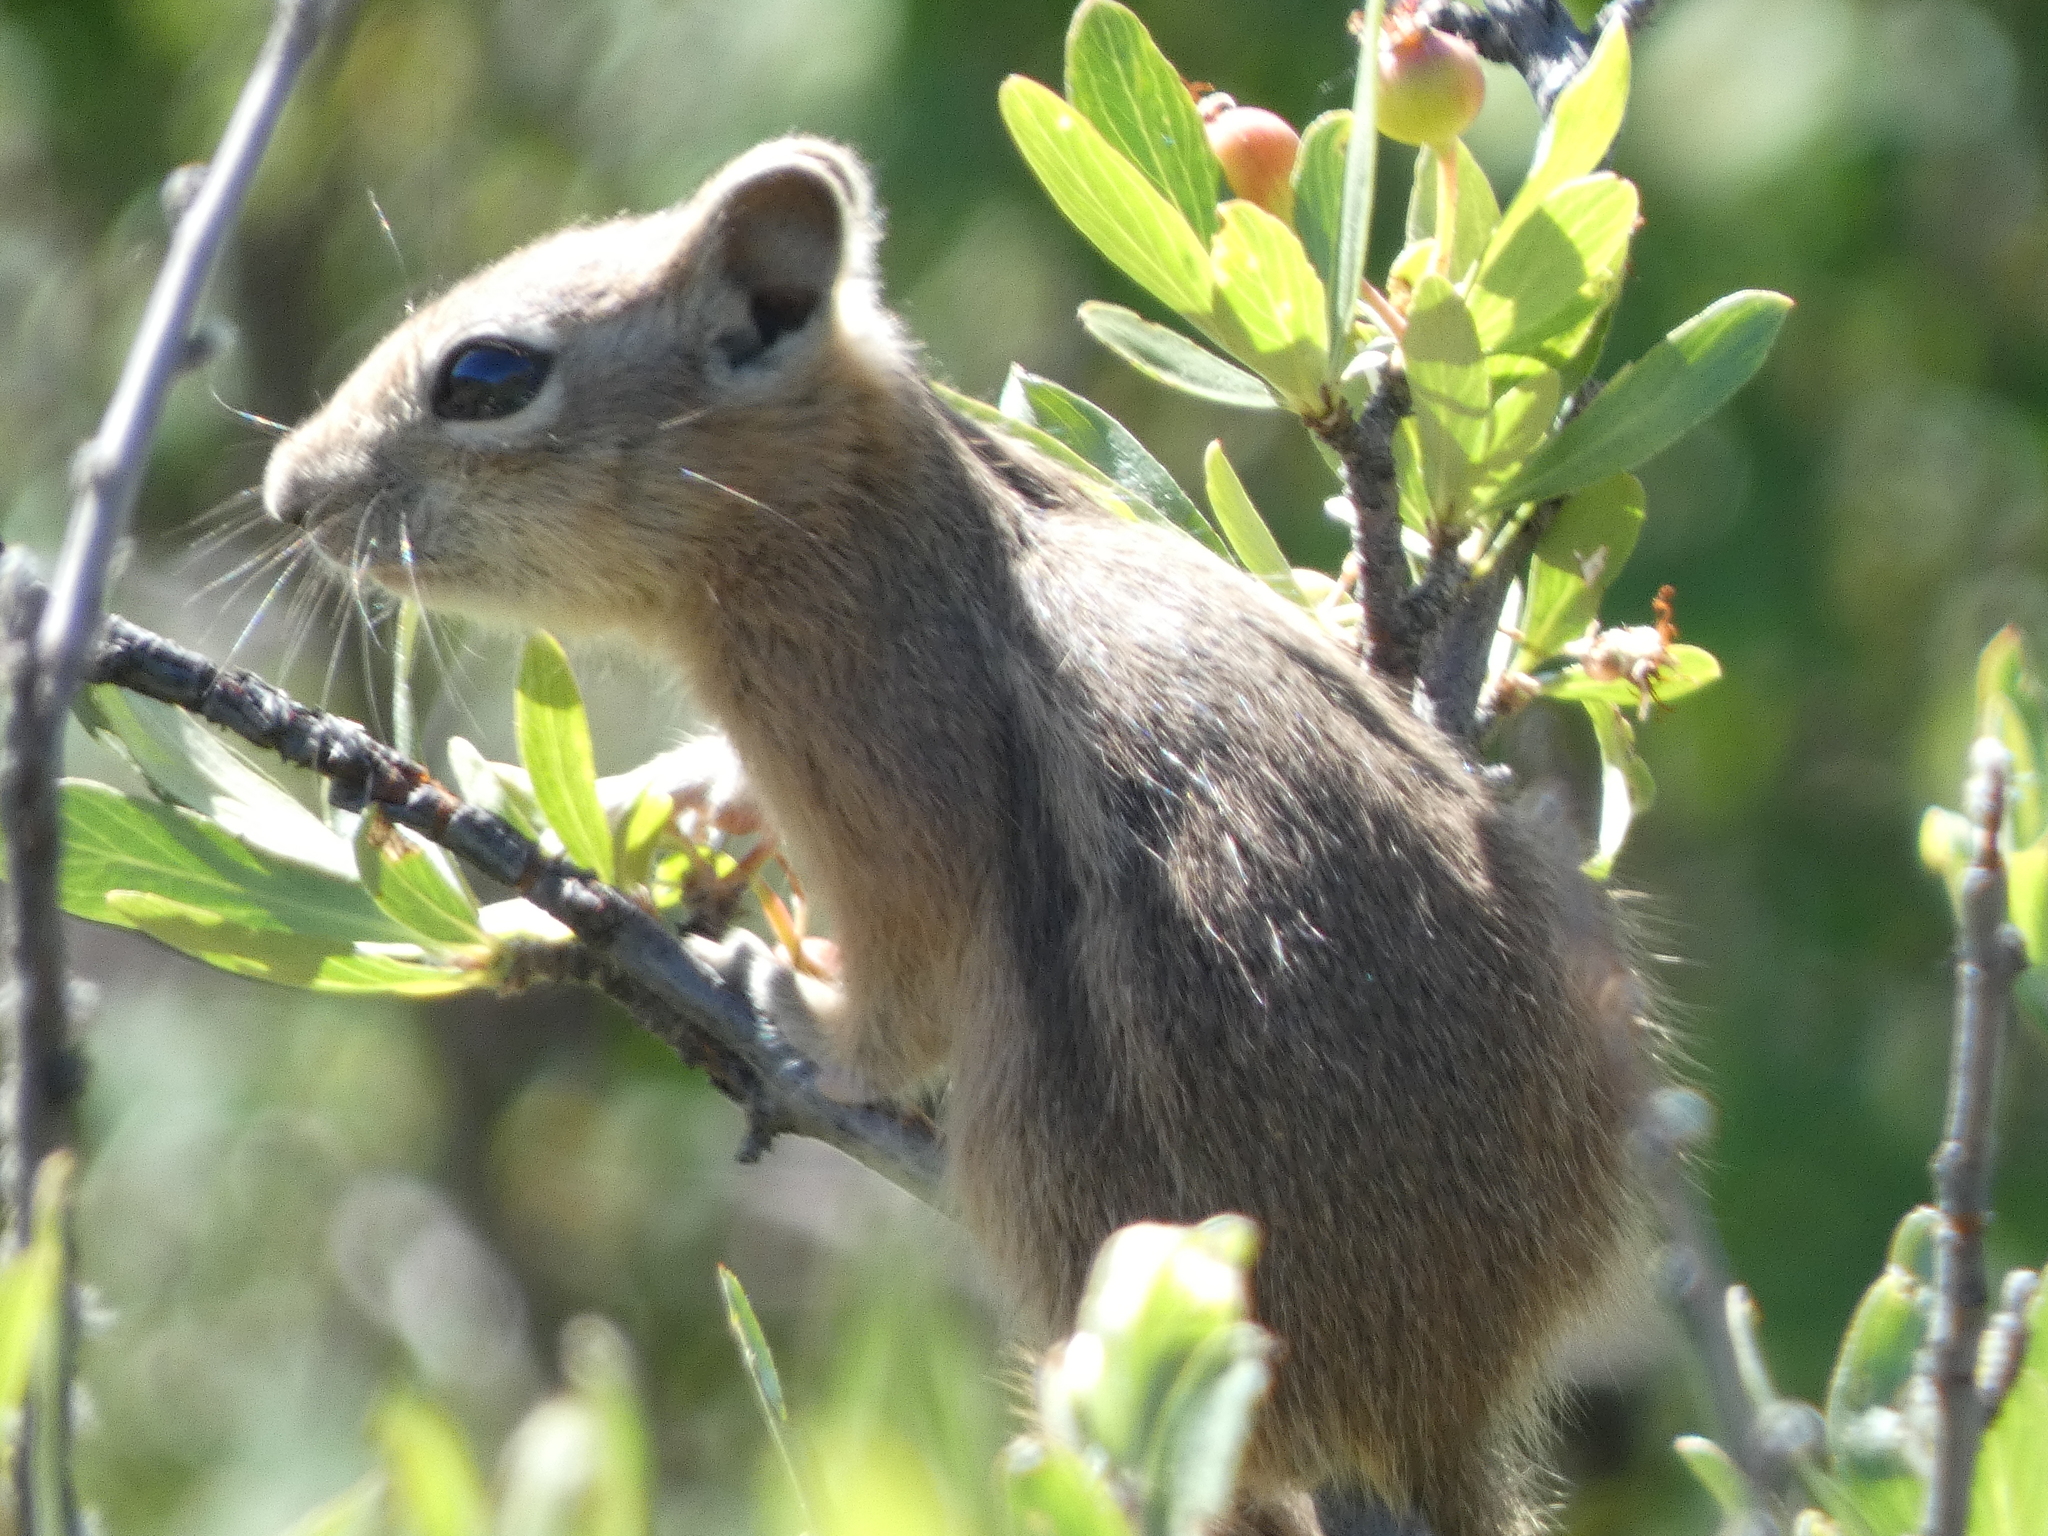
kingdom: Animalia
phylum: Chordata
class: Mammalia
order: Rodentia
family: Sciuridae
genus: Callospermophilus
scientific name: Callospermophilus lateralis
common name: Golden-mantled ground squirrel
